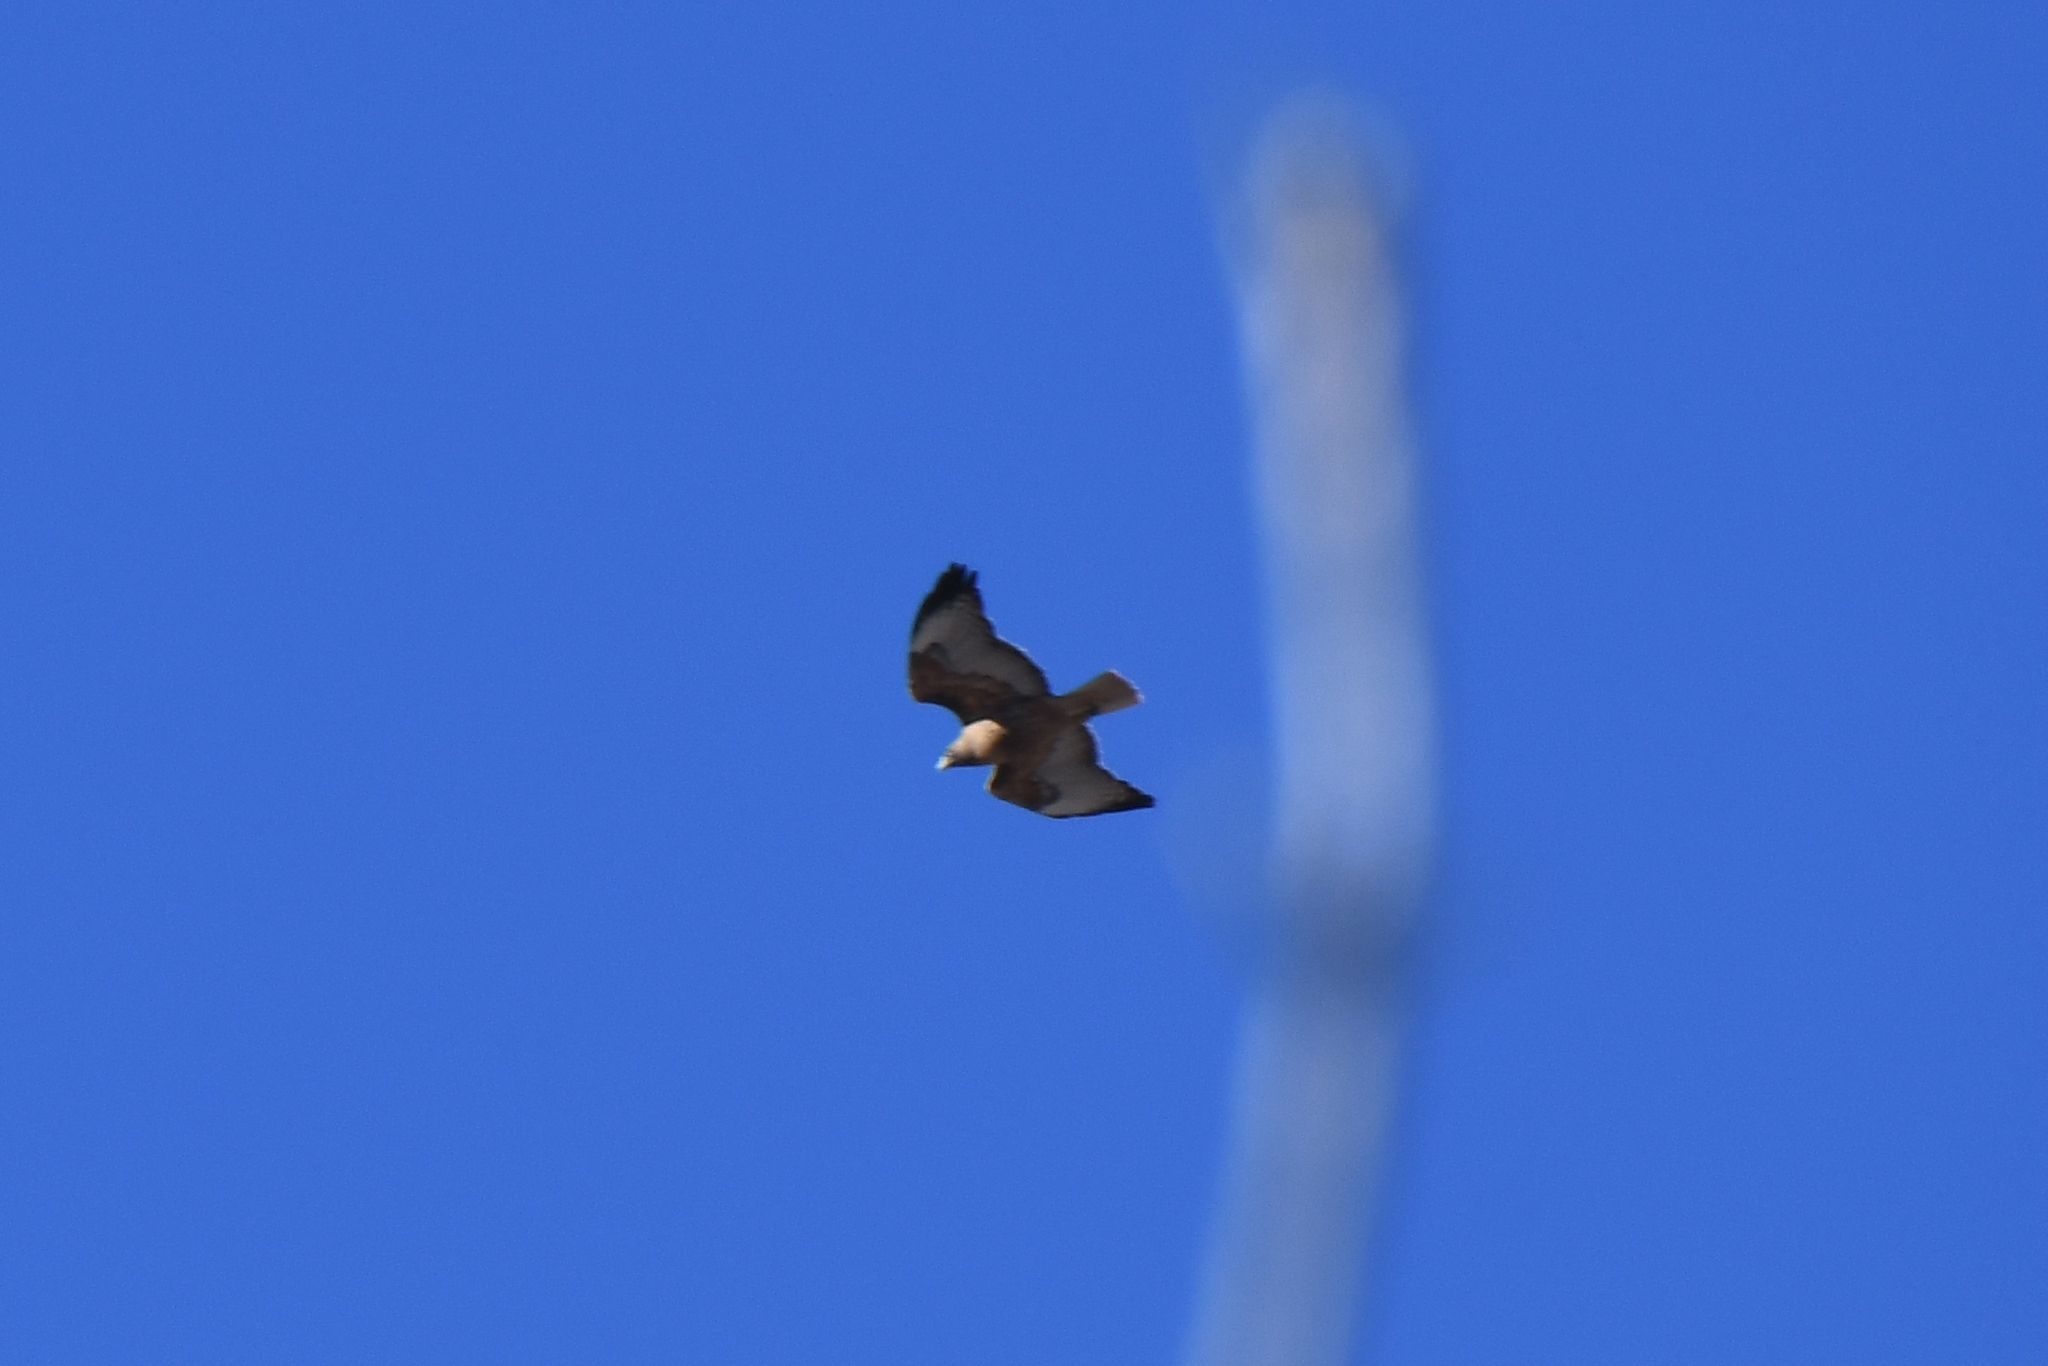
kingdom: Animalia
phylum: Chordata
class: Aves
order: Accipitriformes
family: Accipitridae
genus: Buteo
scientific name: Buteo jamaicensis
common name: Red-tailed hawk
